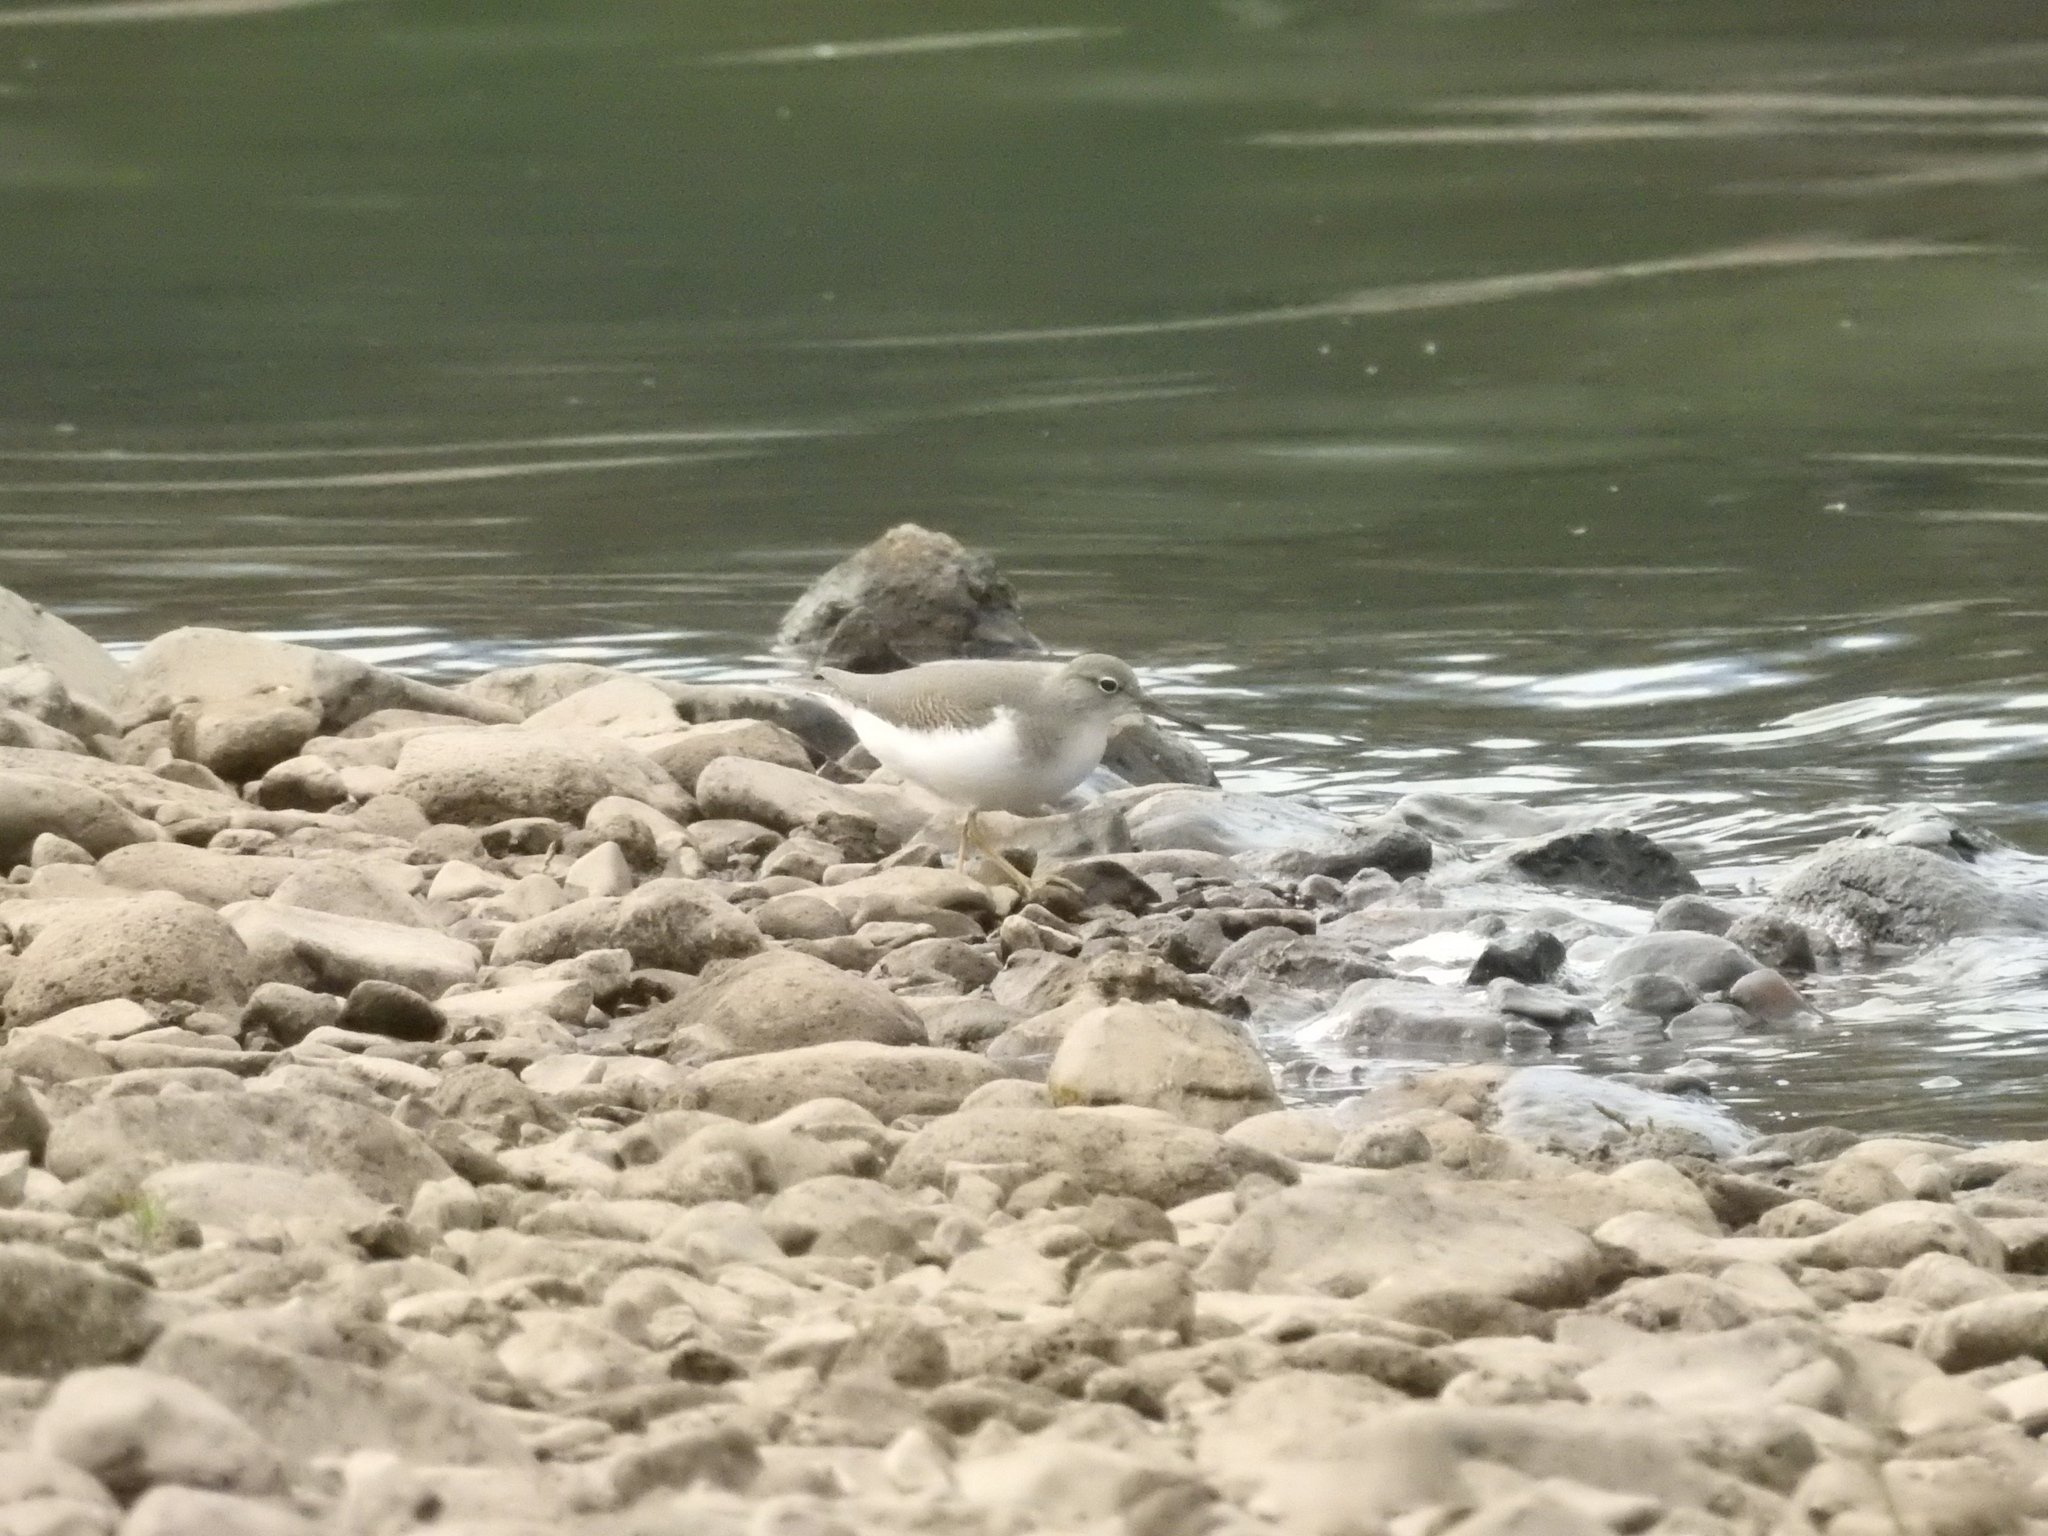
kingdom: Animalia
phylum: Chordata
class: Aves
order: Charadriiformes
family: Scolopacidae
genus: Actitis
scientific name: Actitis macularius
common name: Spotted sandpiper
